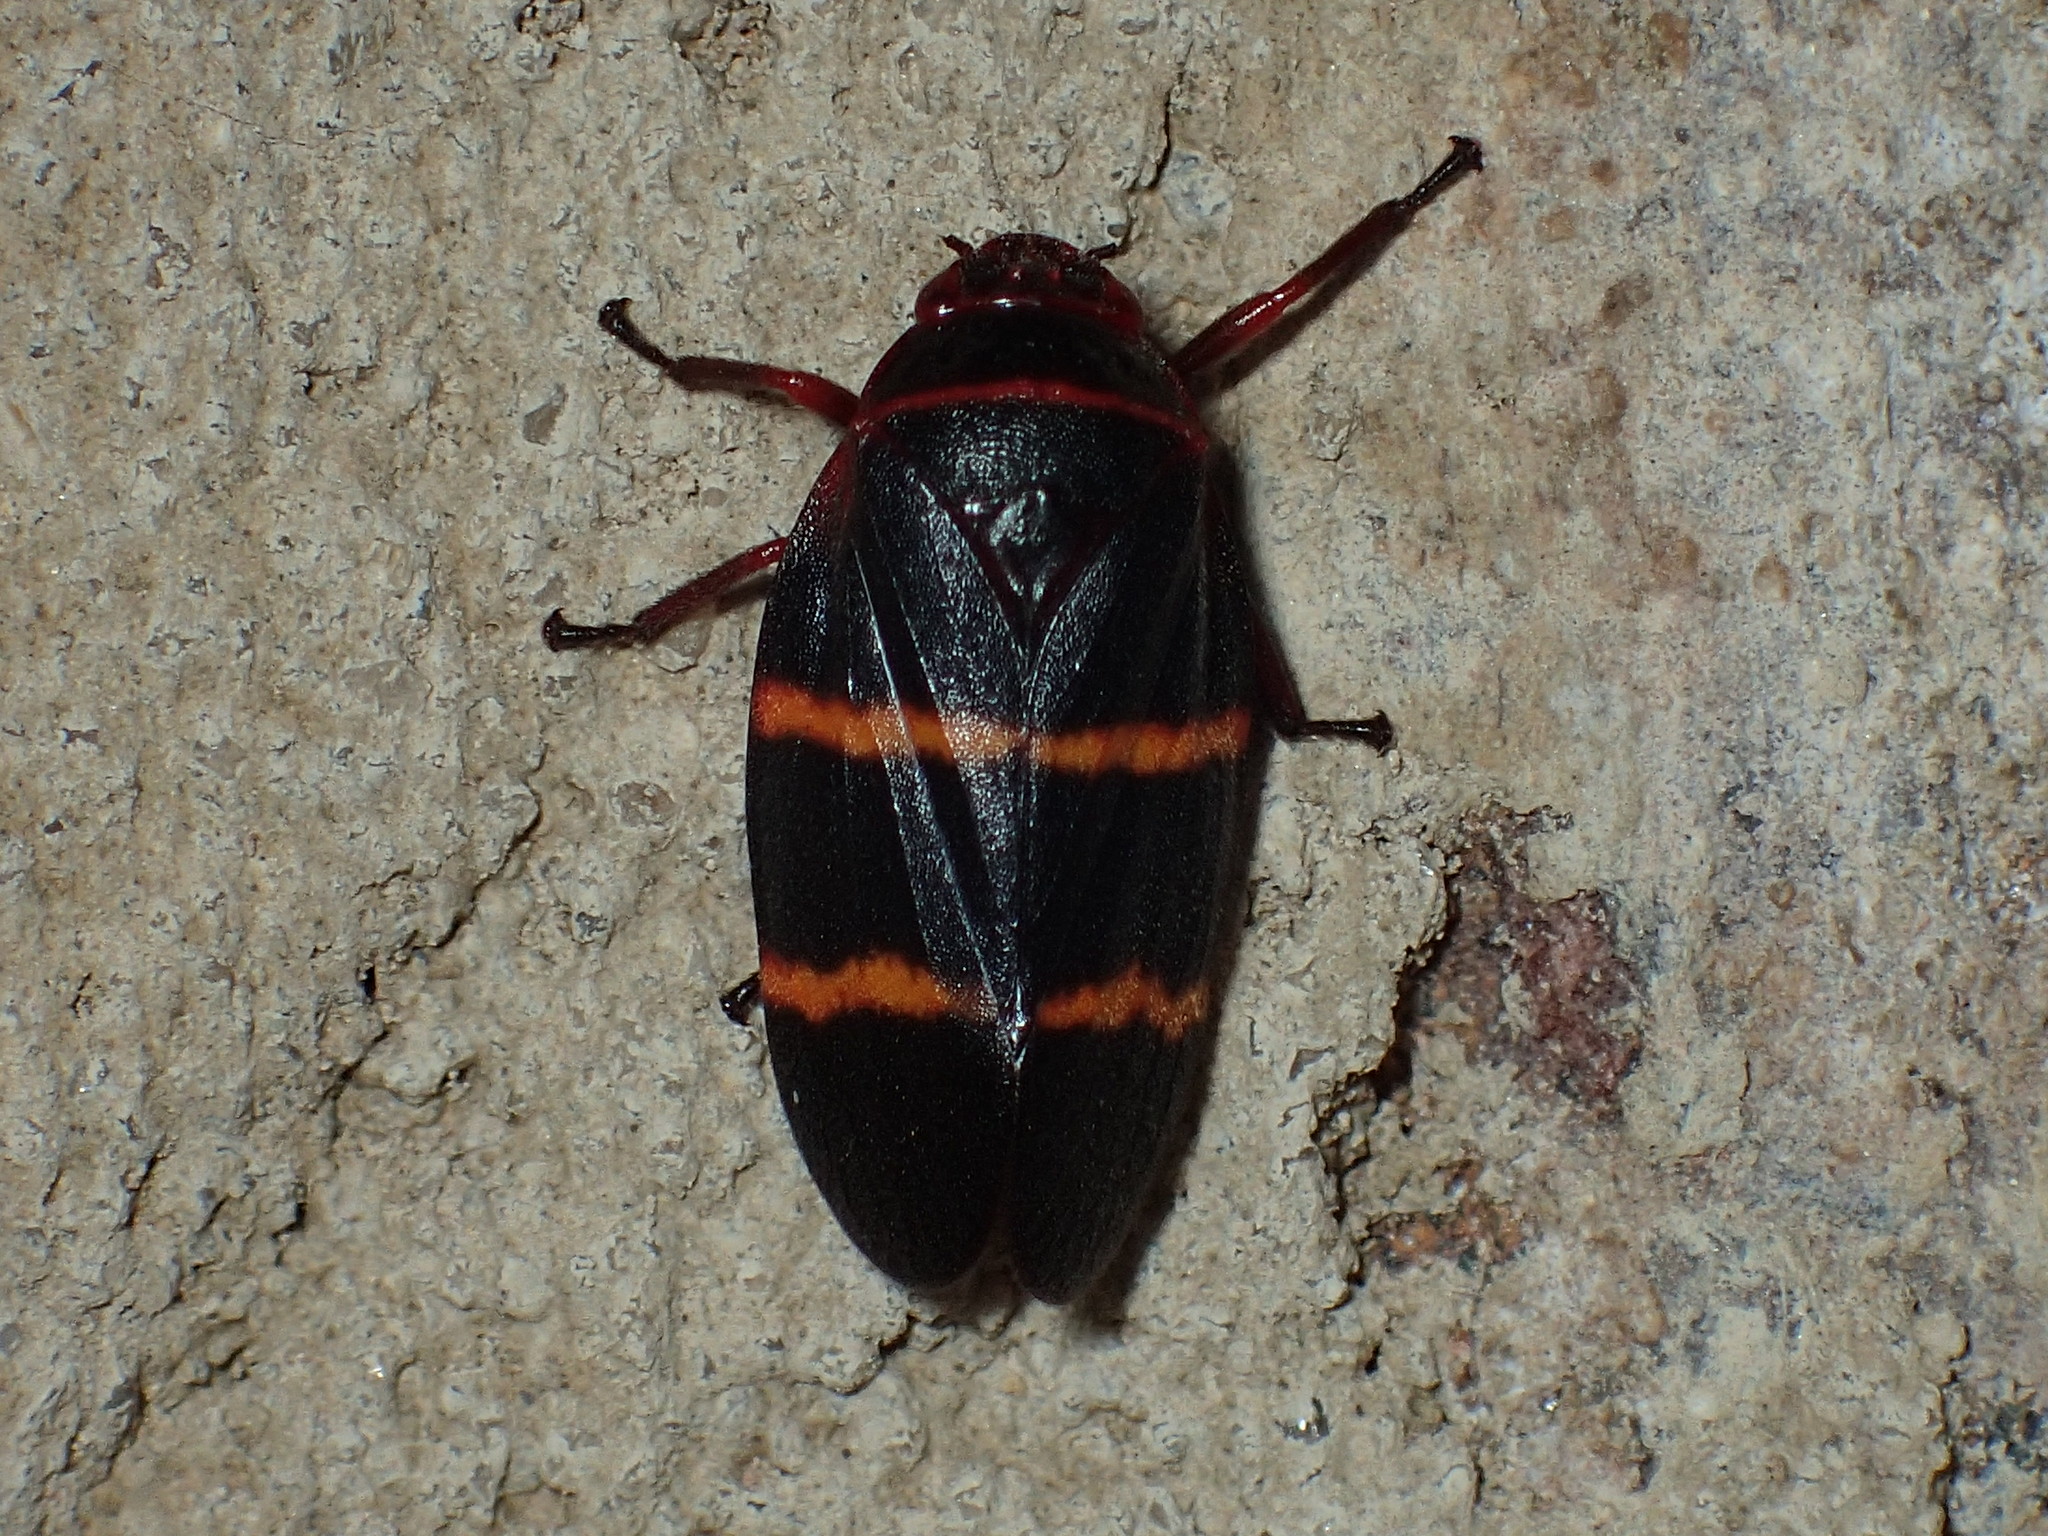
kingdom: Animalia
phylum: Arthropoda
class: Insecta
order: Hemiptera
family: Cercopidae
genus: Prosapia
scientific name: Prosapia bicincta
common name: Twolined spittlebug
